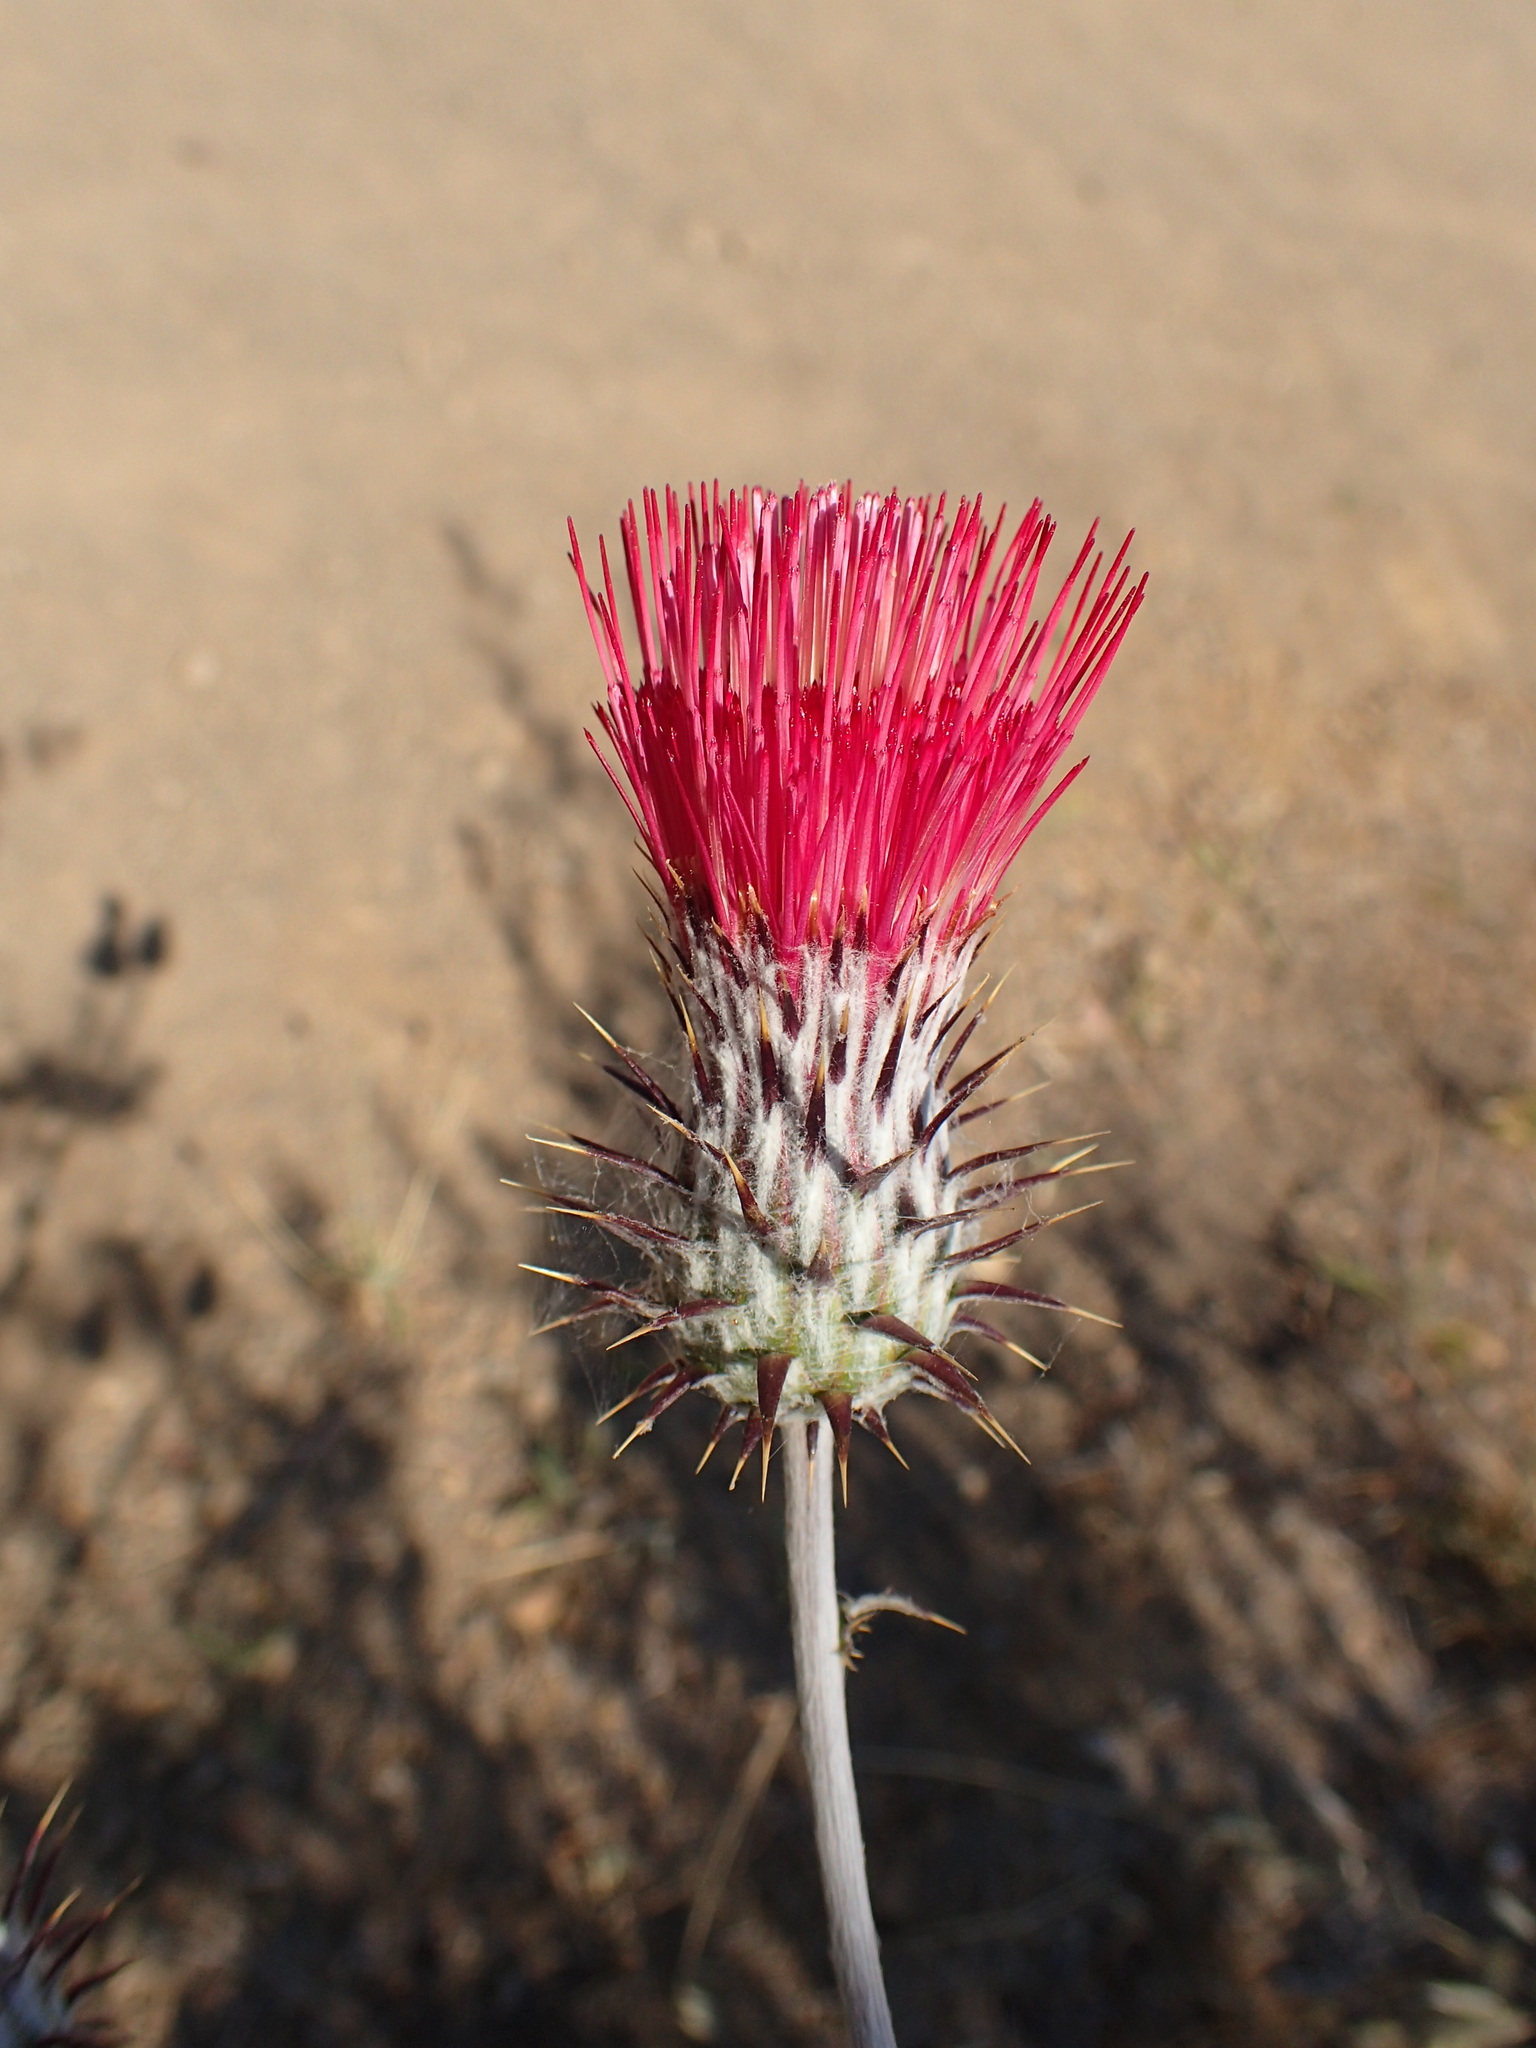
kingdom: Plantae
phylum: Tracheophyta
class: Magnoliopsida
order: Asterales
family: Asteraceae
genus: Cirsium
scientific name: Cirsium occidentale
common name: Western thistle
